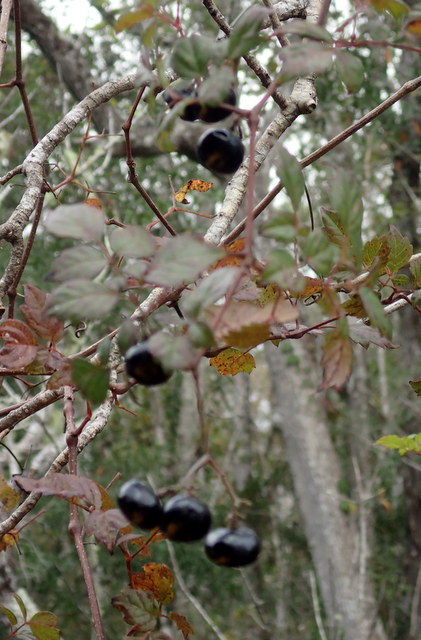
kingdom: Plantae
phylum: Tracheophyta
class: Magnoliopsida
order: Vitales
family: Vitaceae
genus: Nekemias
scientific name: Nekemias arborea
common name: Peppervine
